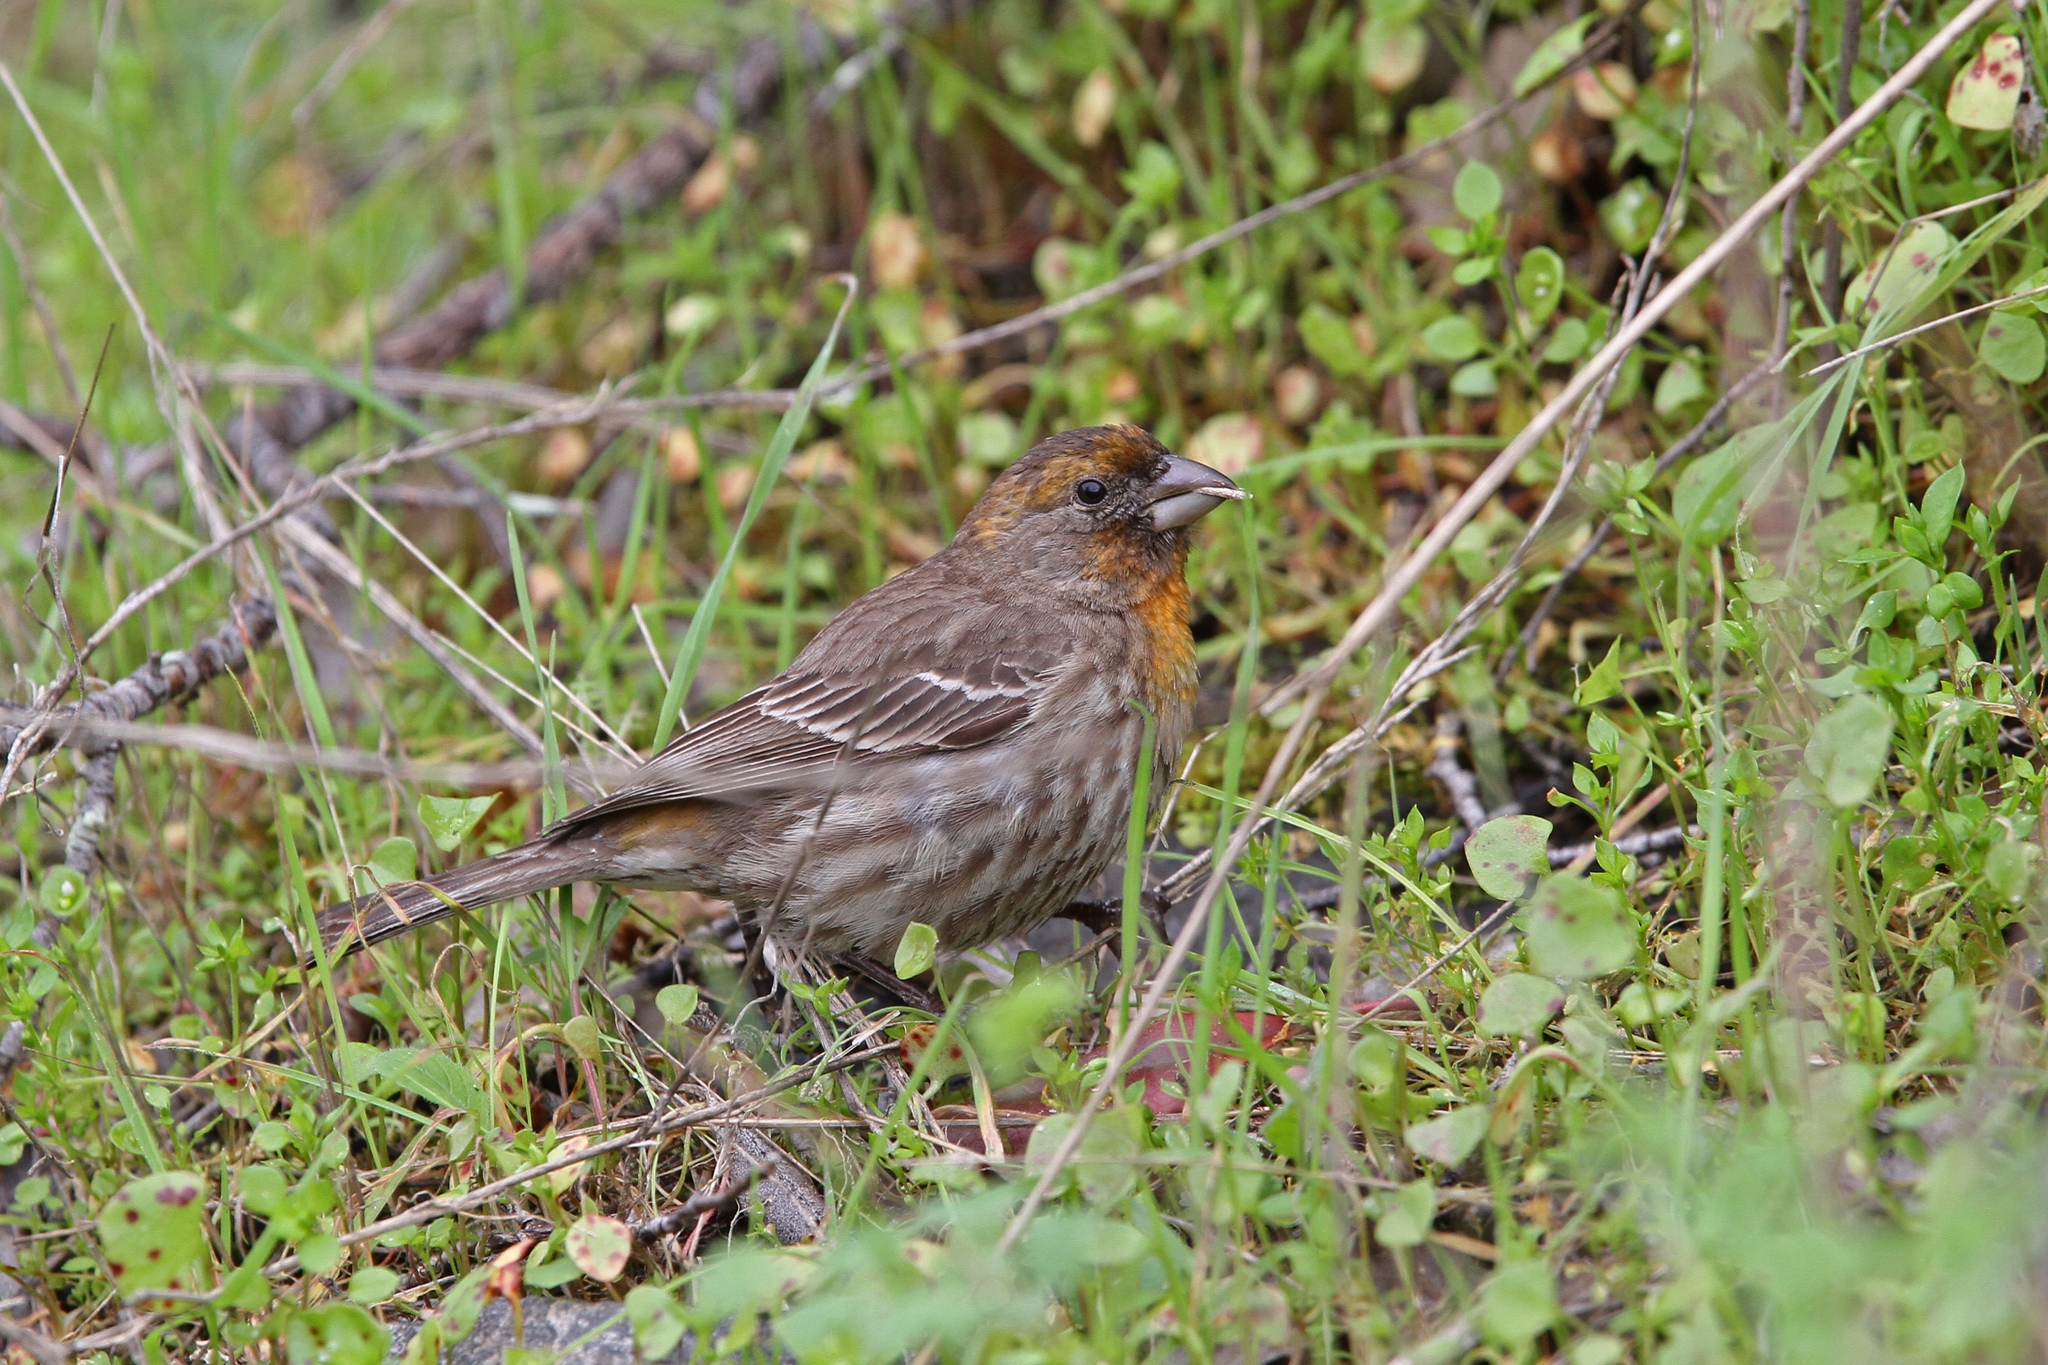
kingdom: Animalia
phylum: Chordata
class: Aves
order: Passeriformes
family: Fringillidae
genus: Haemorhous
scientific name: Haemorhous mexicanus
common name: House finch
